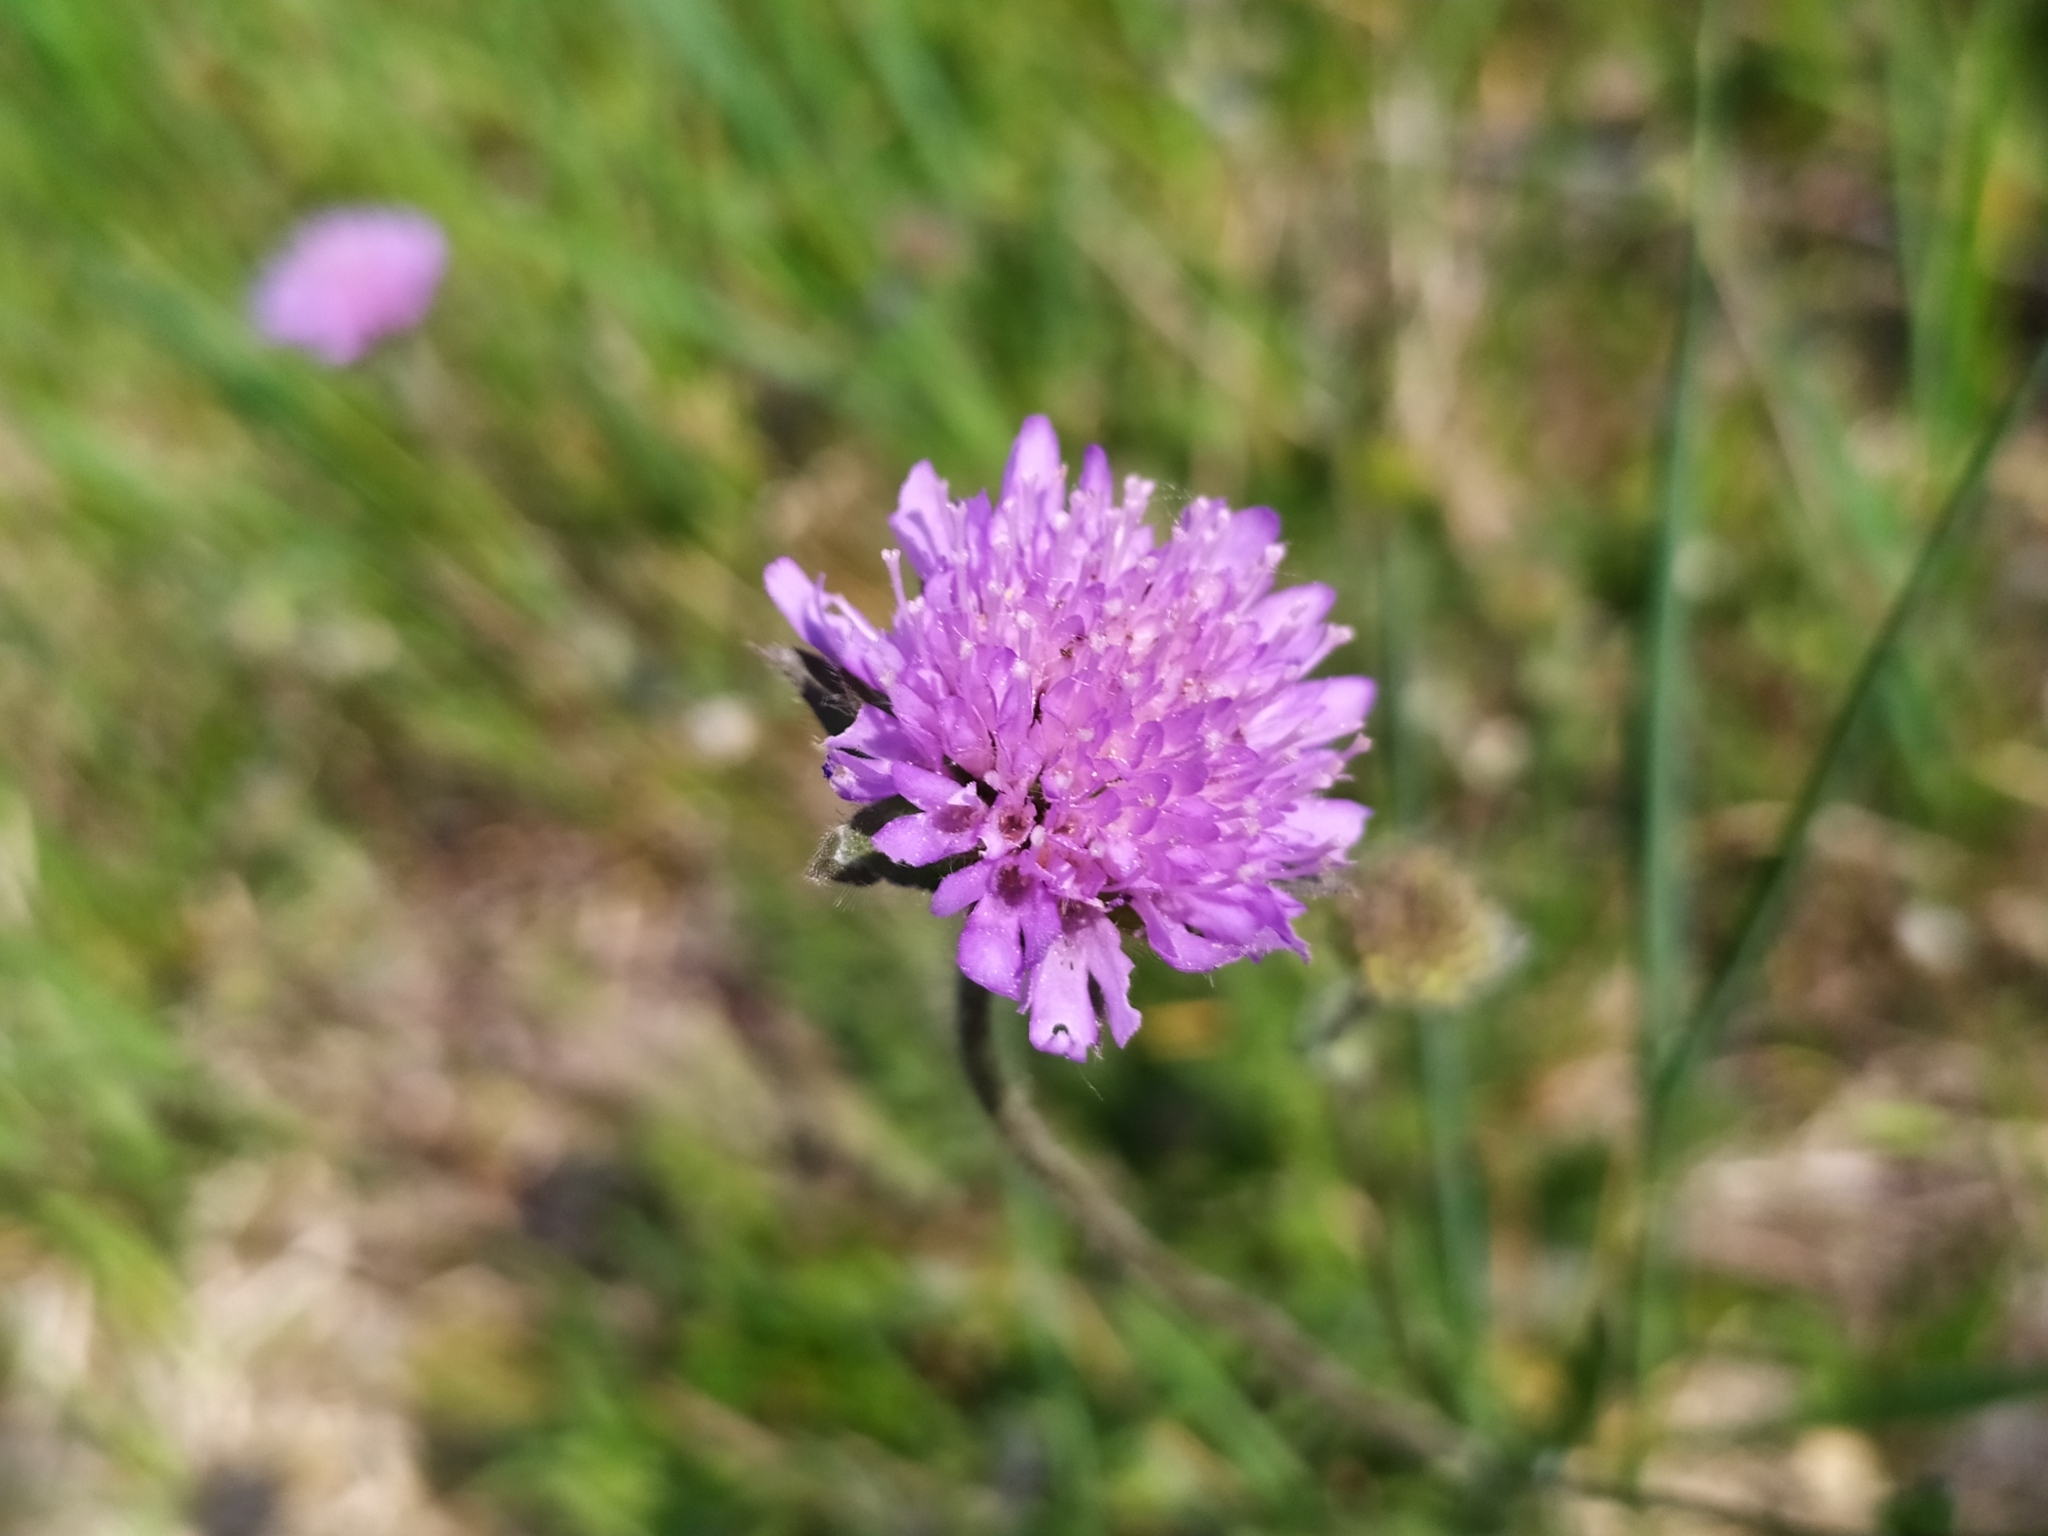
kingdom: Plantae
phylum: Tracheophyta
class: Magnoliopsida
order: Dipsacales
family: Caprifoliaceae
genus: Knautia
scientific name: Knautia arvensis
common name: Field scabiosa
